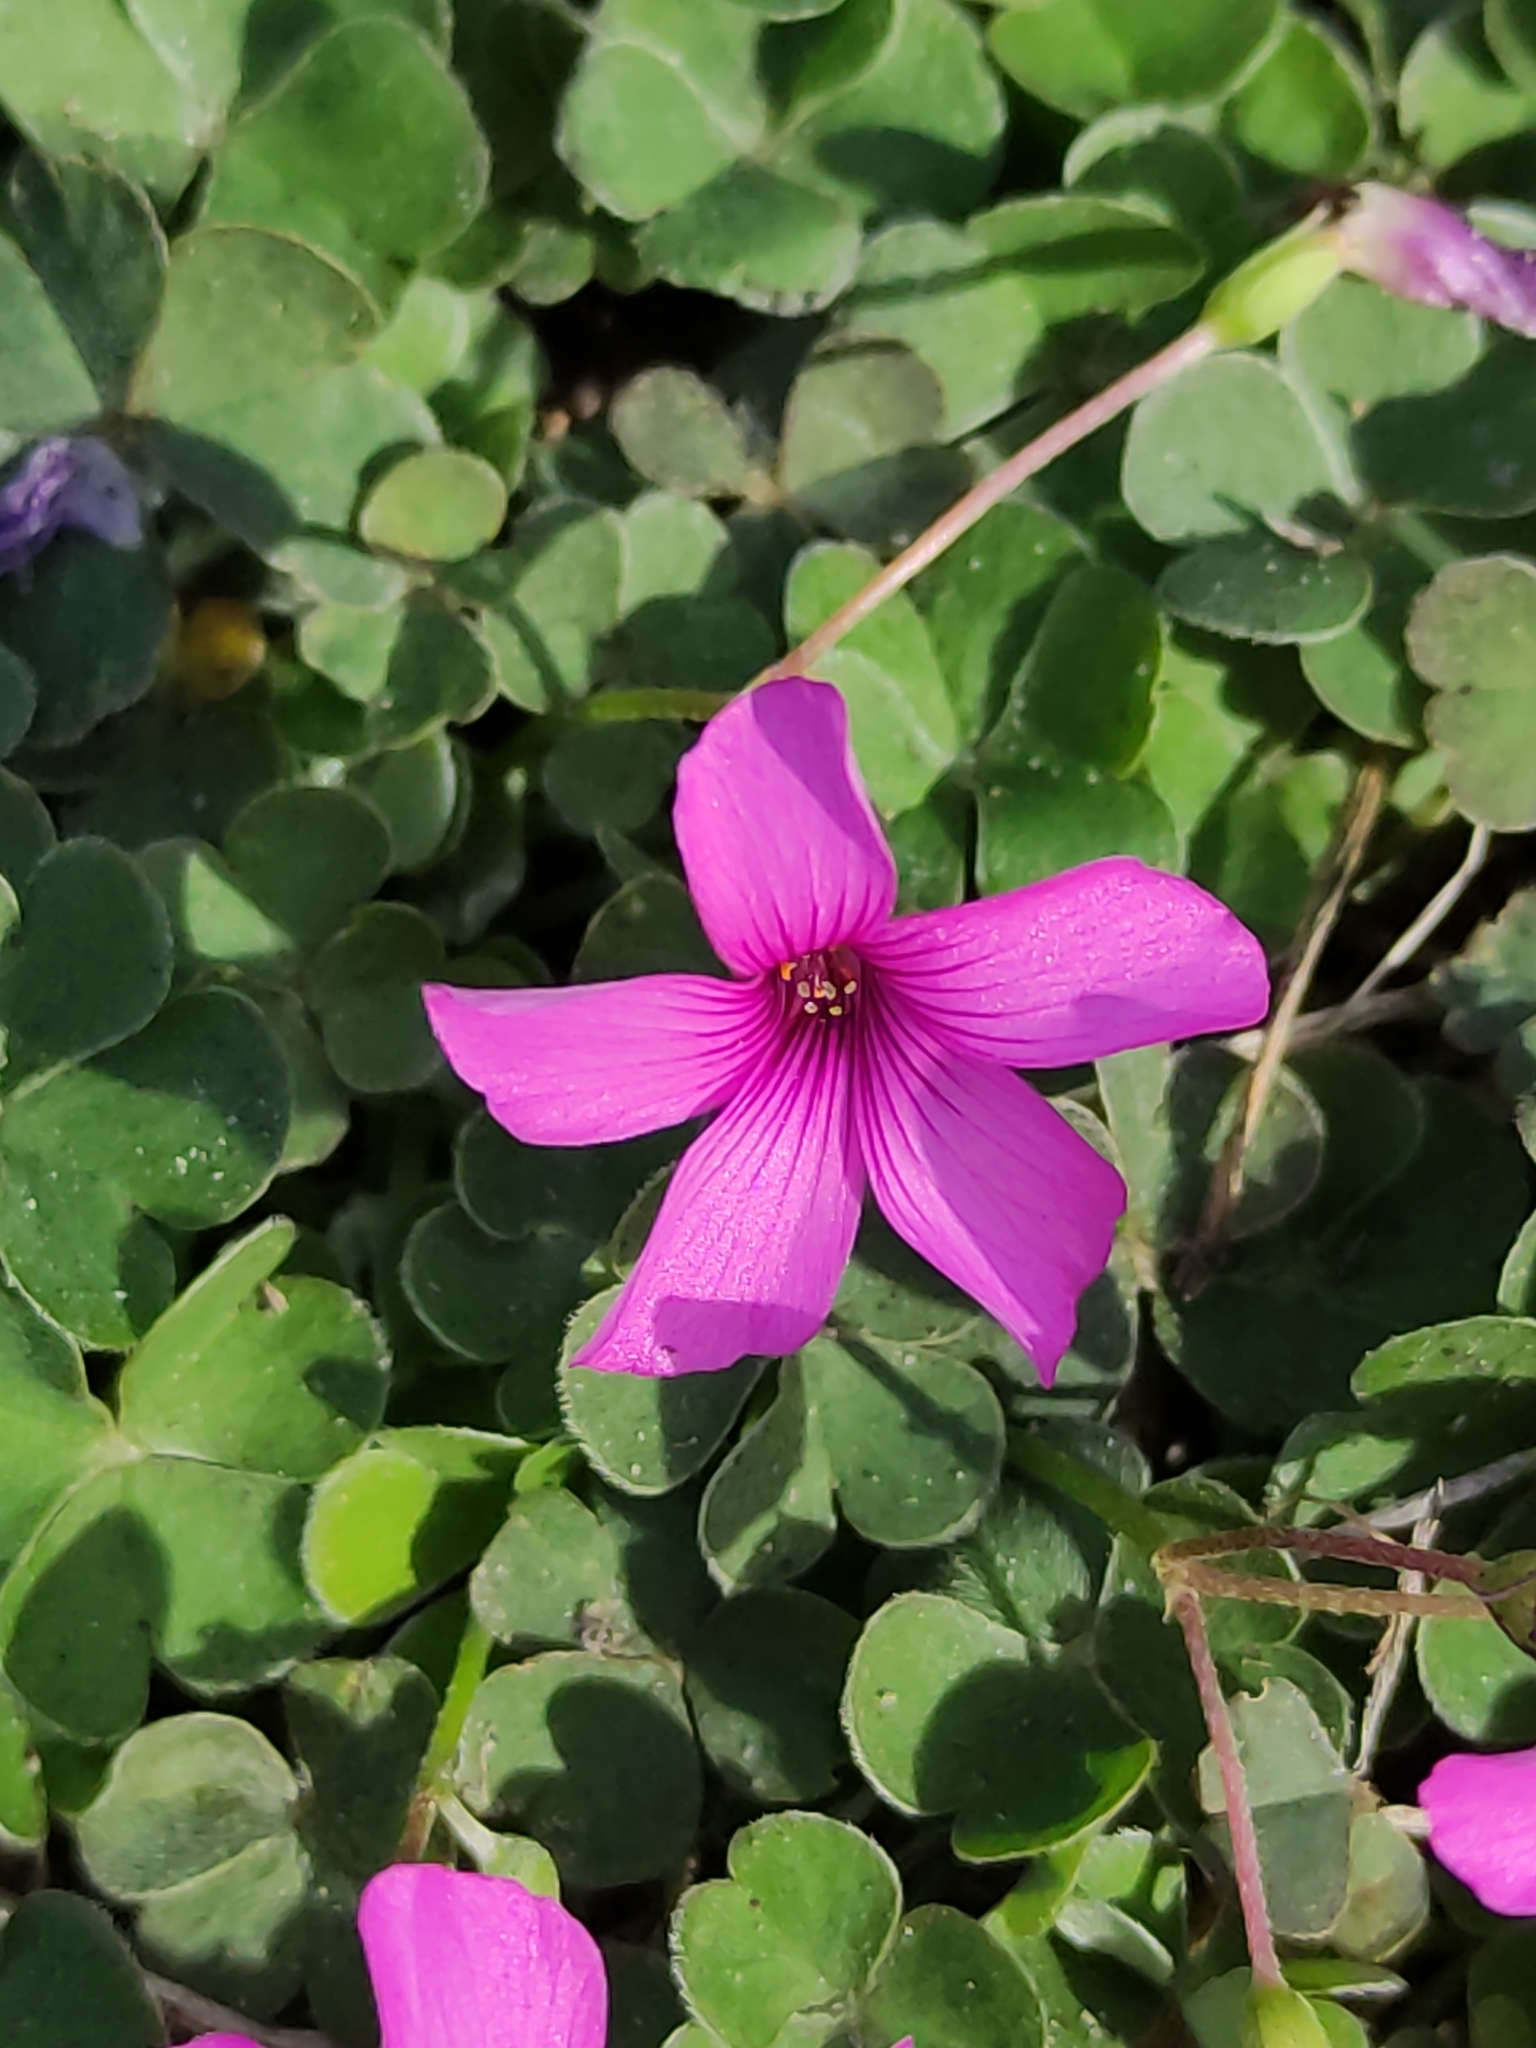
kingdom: Plantae
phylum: Tracheophyta
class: Magnoliopsida
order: Oxalidales
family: Oxalidaceae
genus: Oxalis
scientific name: Oxalis articulata
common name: Pink-sorrel
